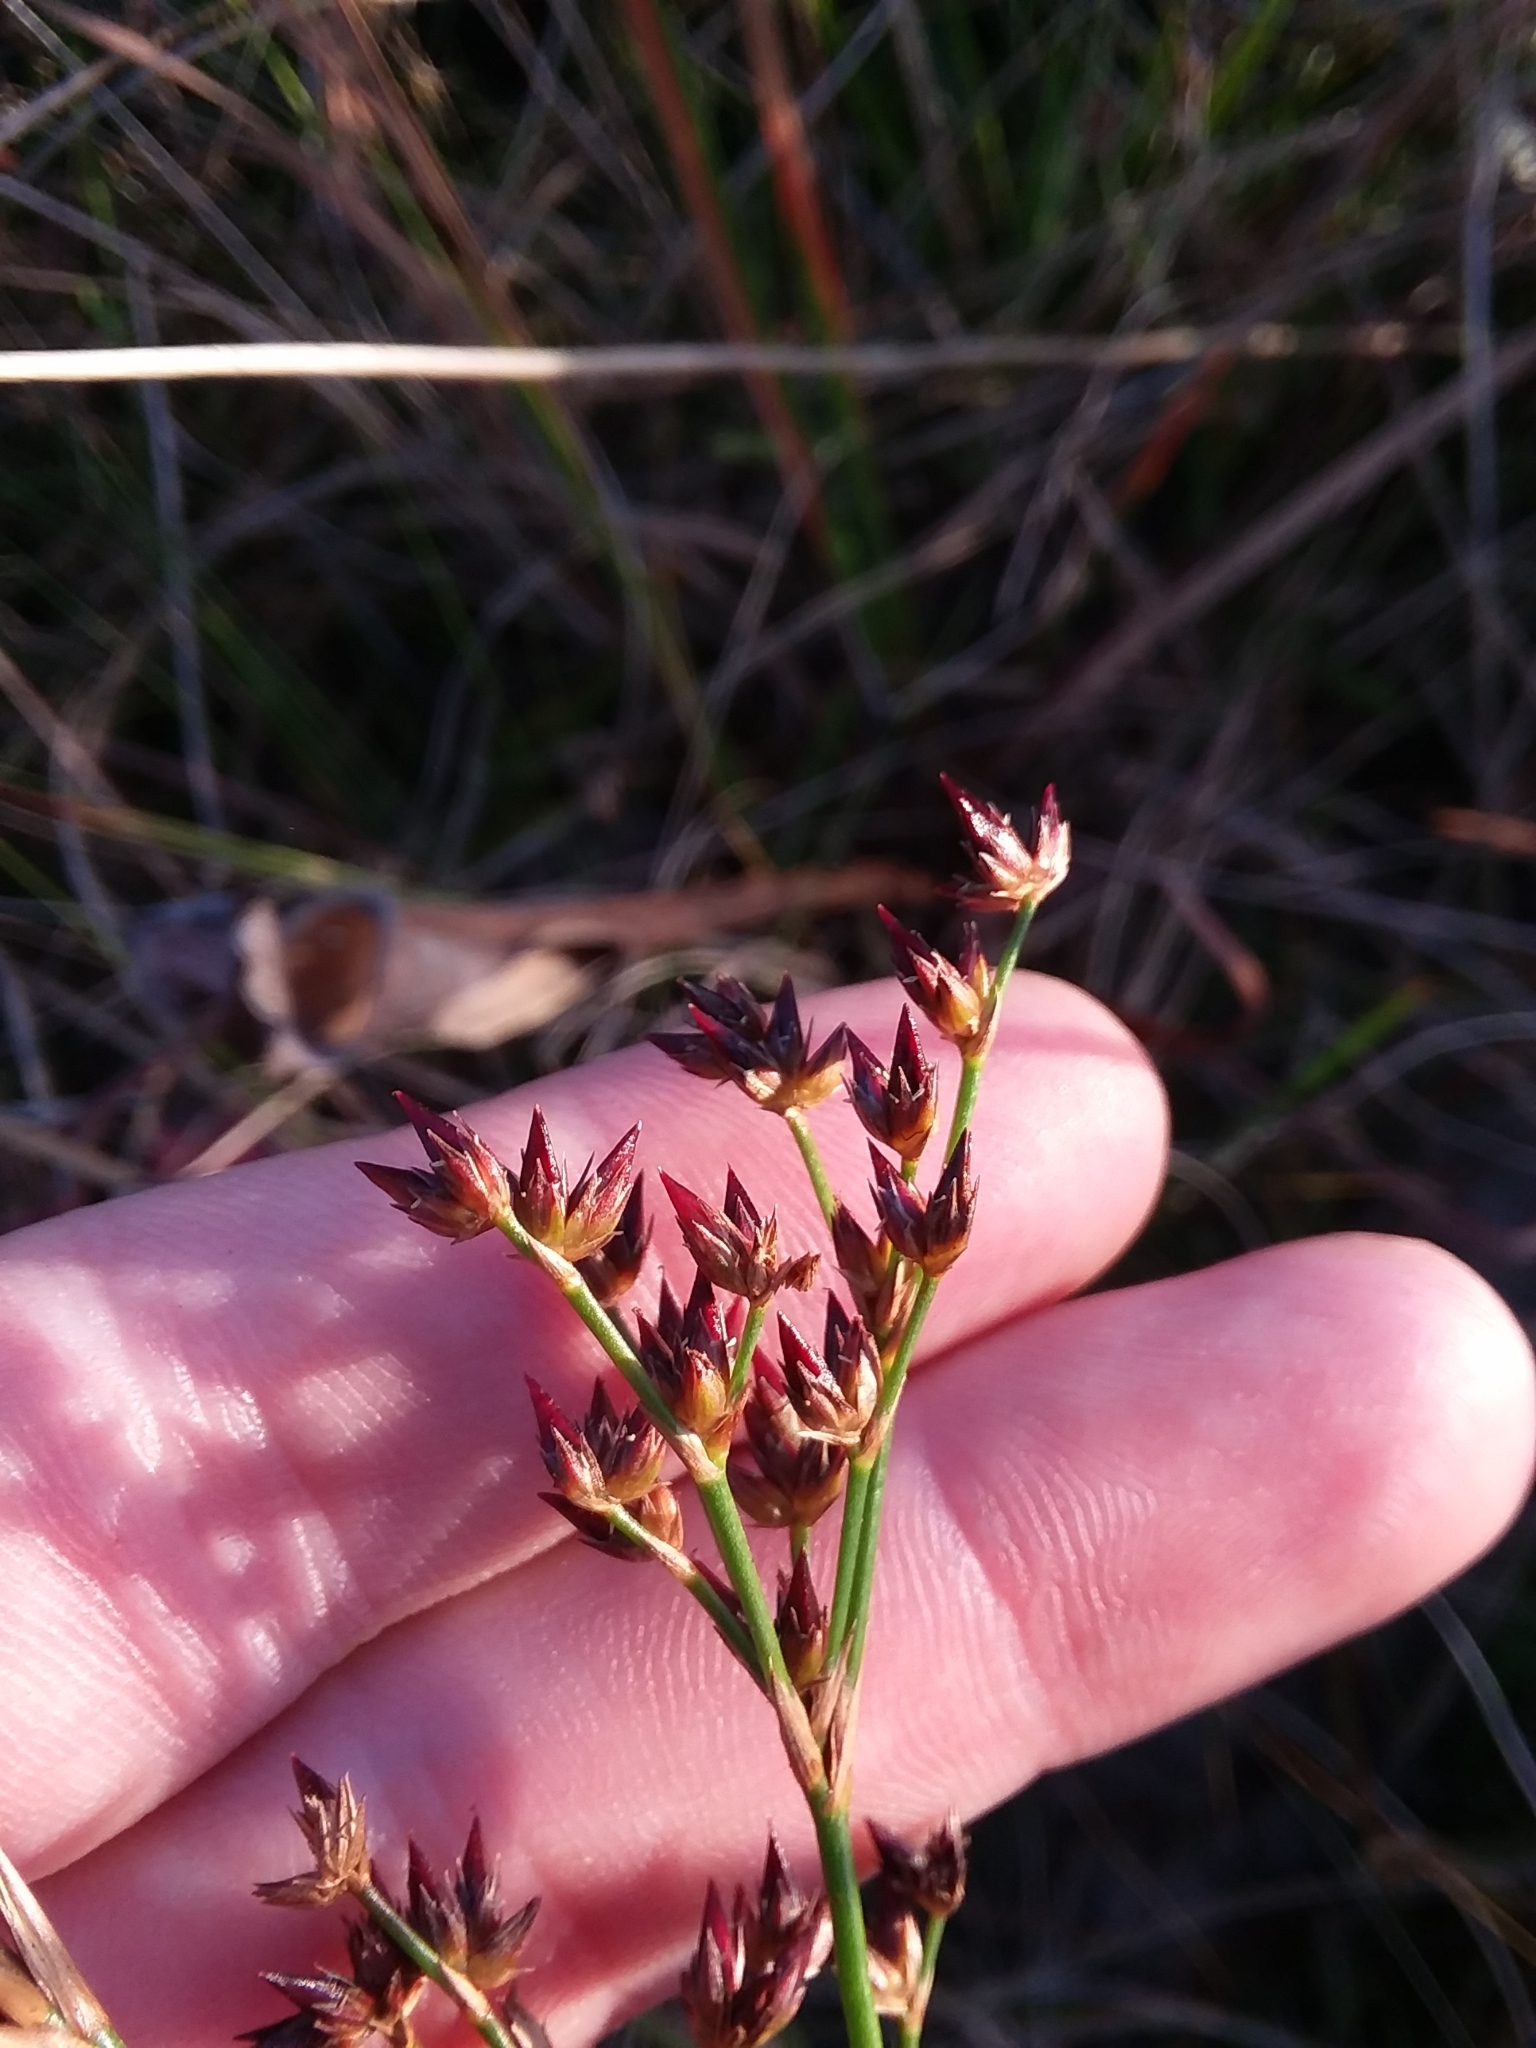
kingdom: Plantae
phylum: Tracheophyta
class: Liliopsida
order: Poales
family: Juncaceae
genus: Juncus
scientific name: Juncus trigonocarpus
